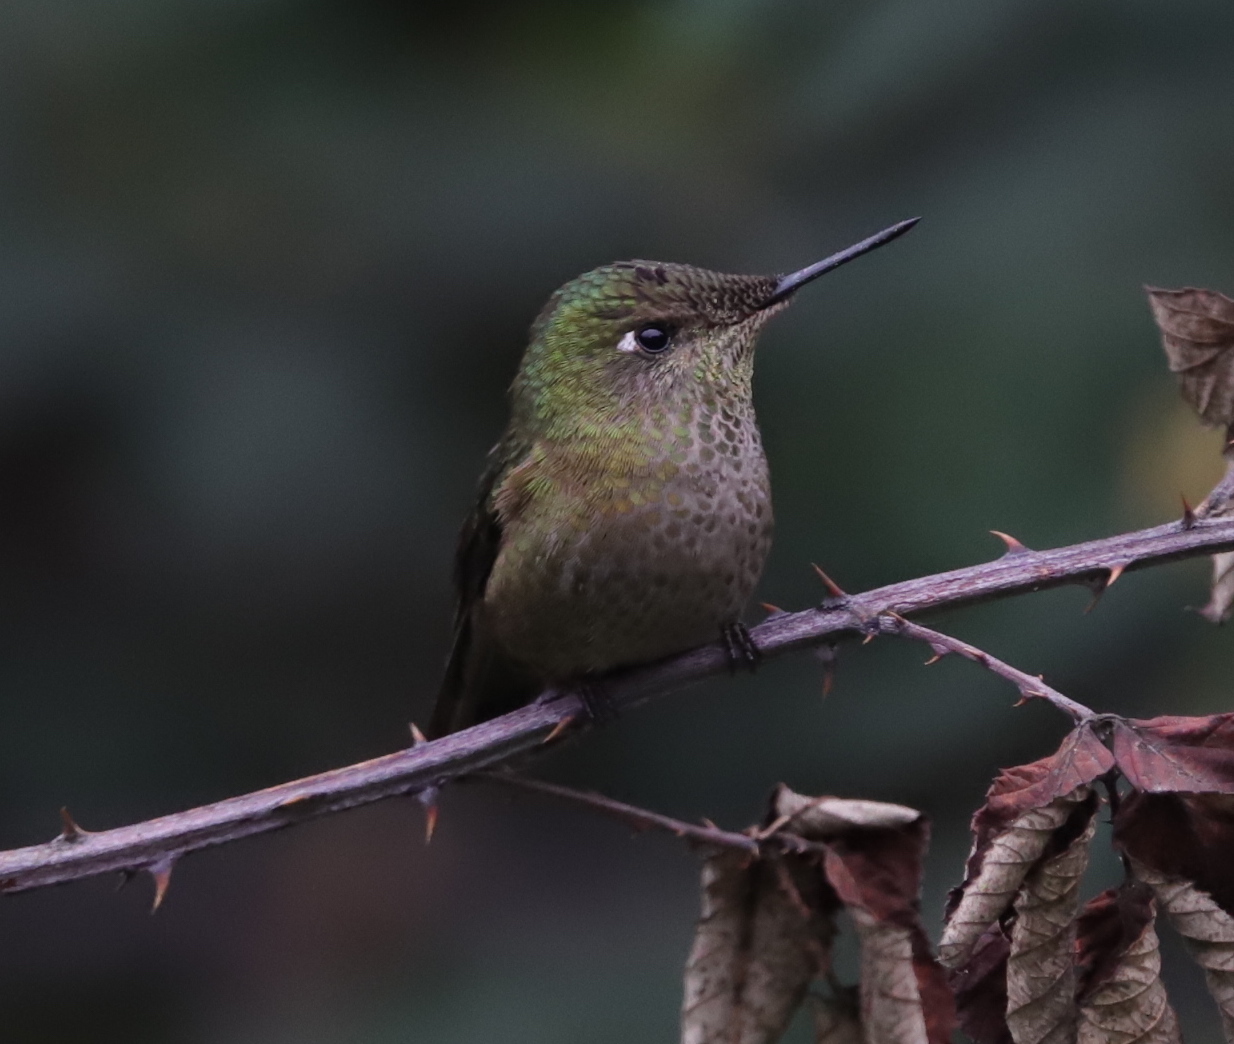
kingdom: Animalia
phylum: Chordata
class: Aves
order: Apodiformes
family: Trochilidae
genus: Sephanoides
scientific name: Sephanoides sephaniodes
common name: Green-backed firecrown
